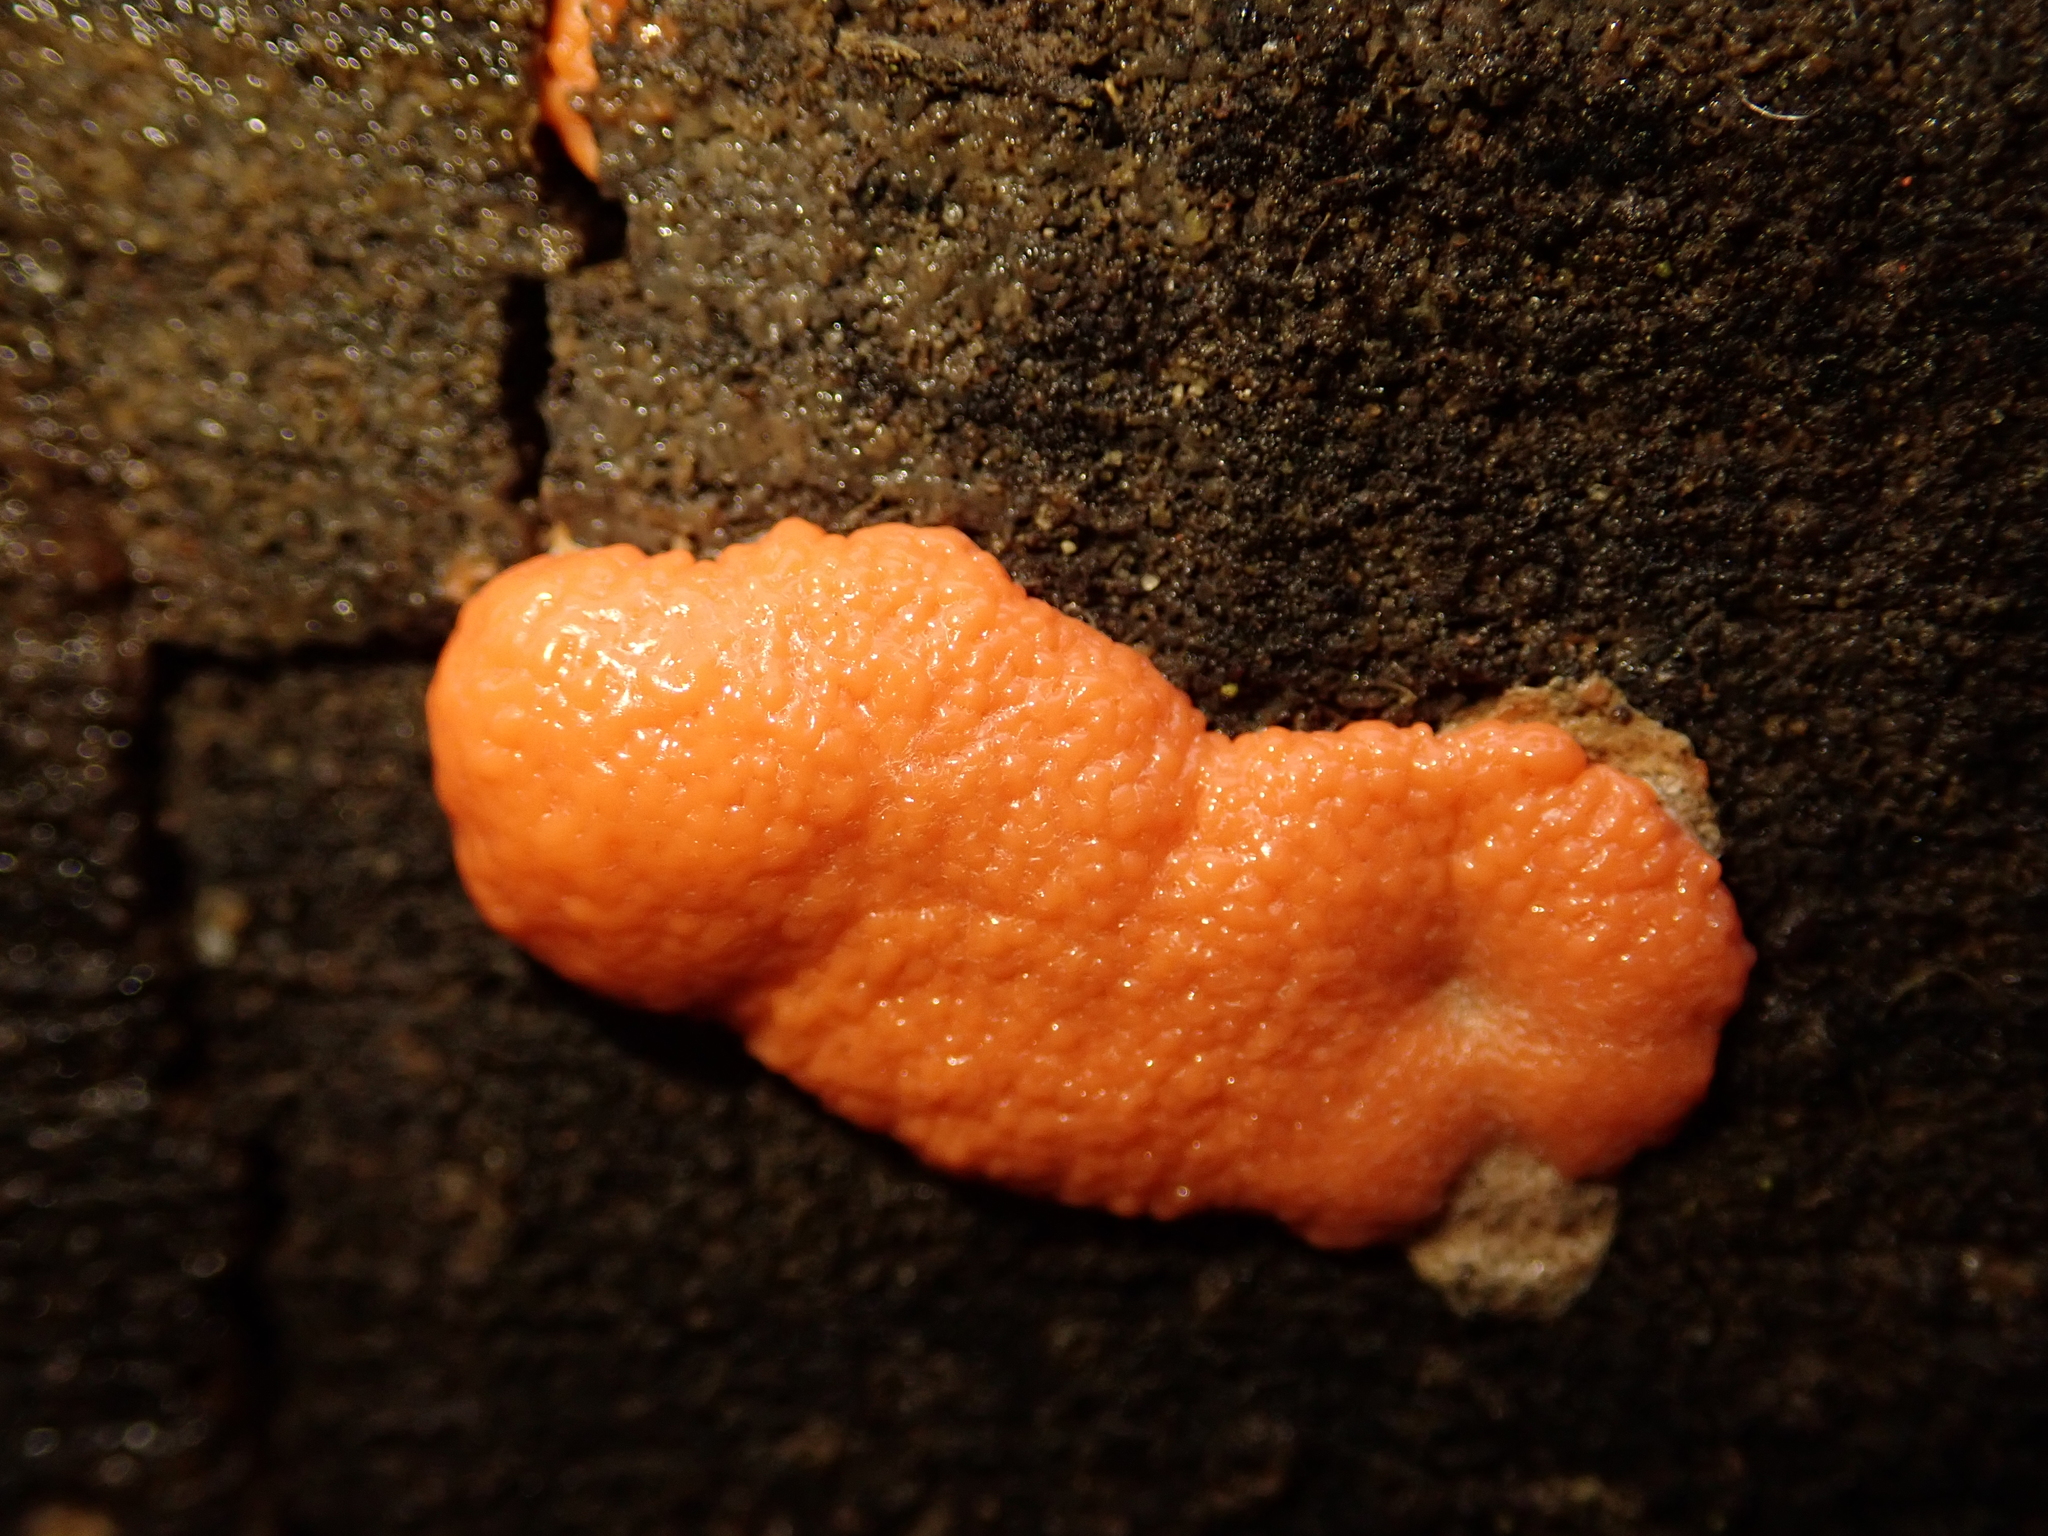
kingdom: Protozoa
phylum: Mycetozoa
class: Myxomycetes
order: Cribrariales
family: Tubiferaceae
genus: Tubifera
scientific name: Tubifera ferruginosa
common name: Red raspberry slime mold
